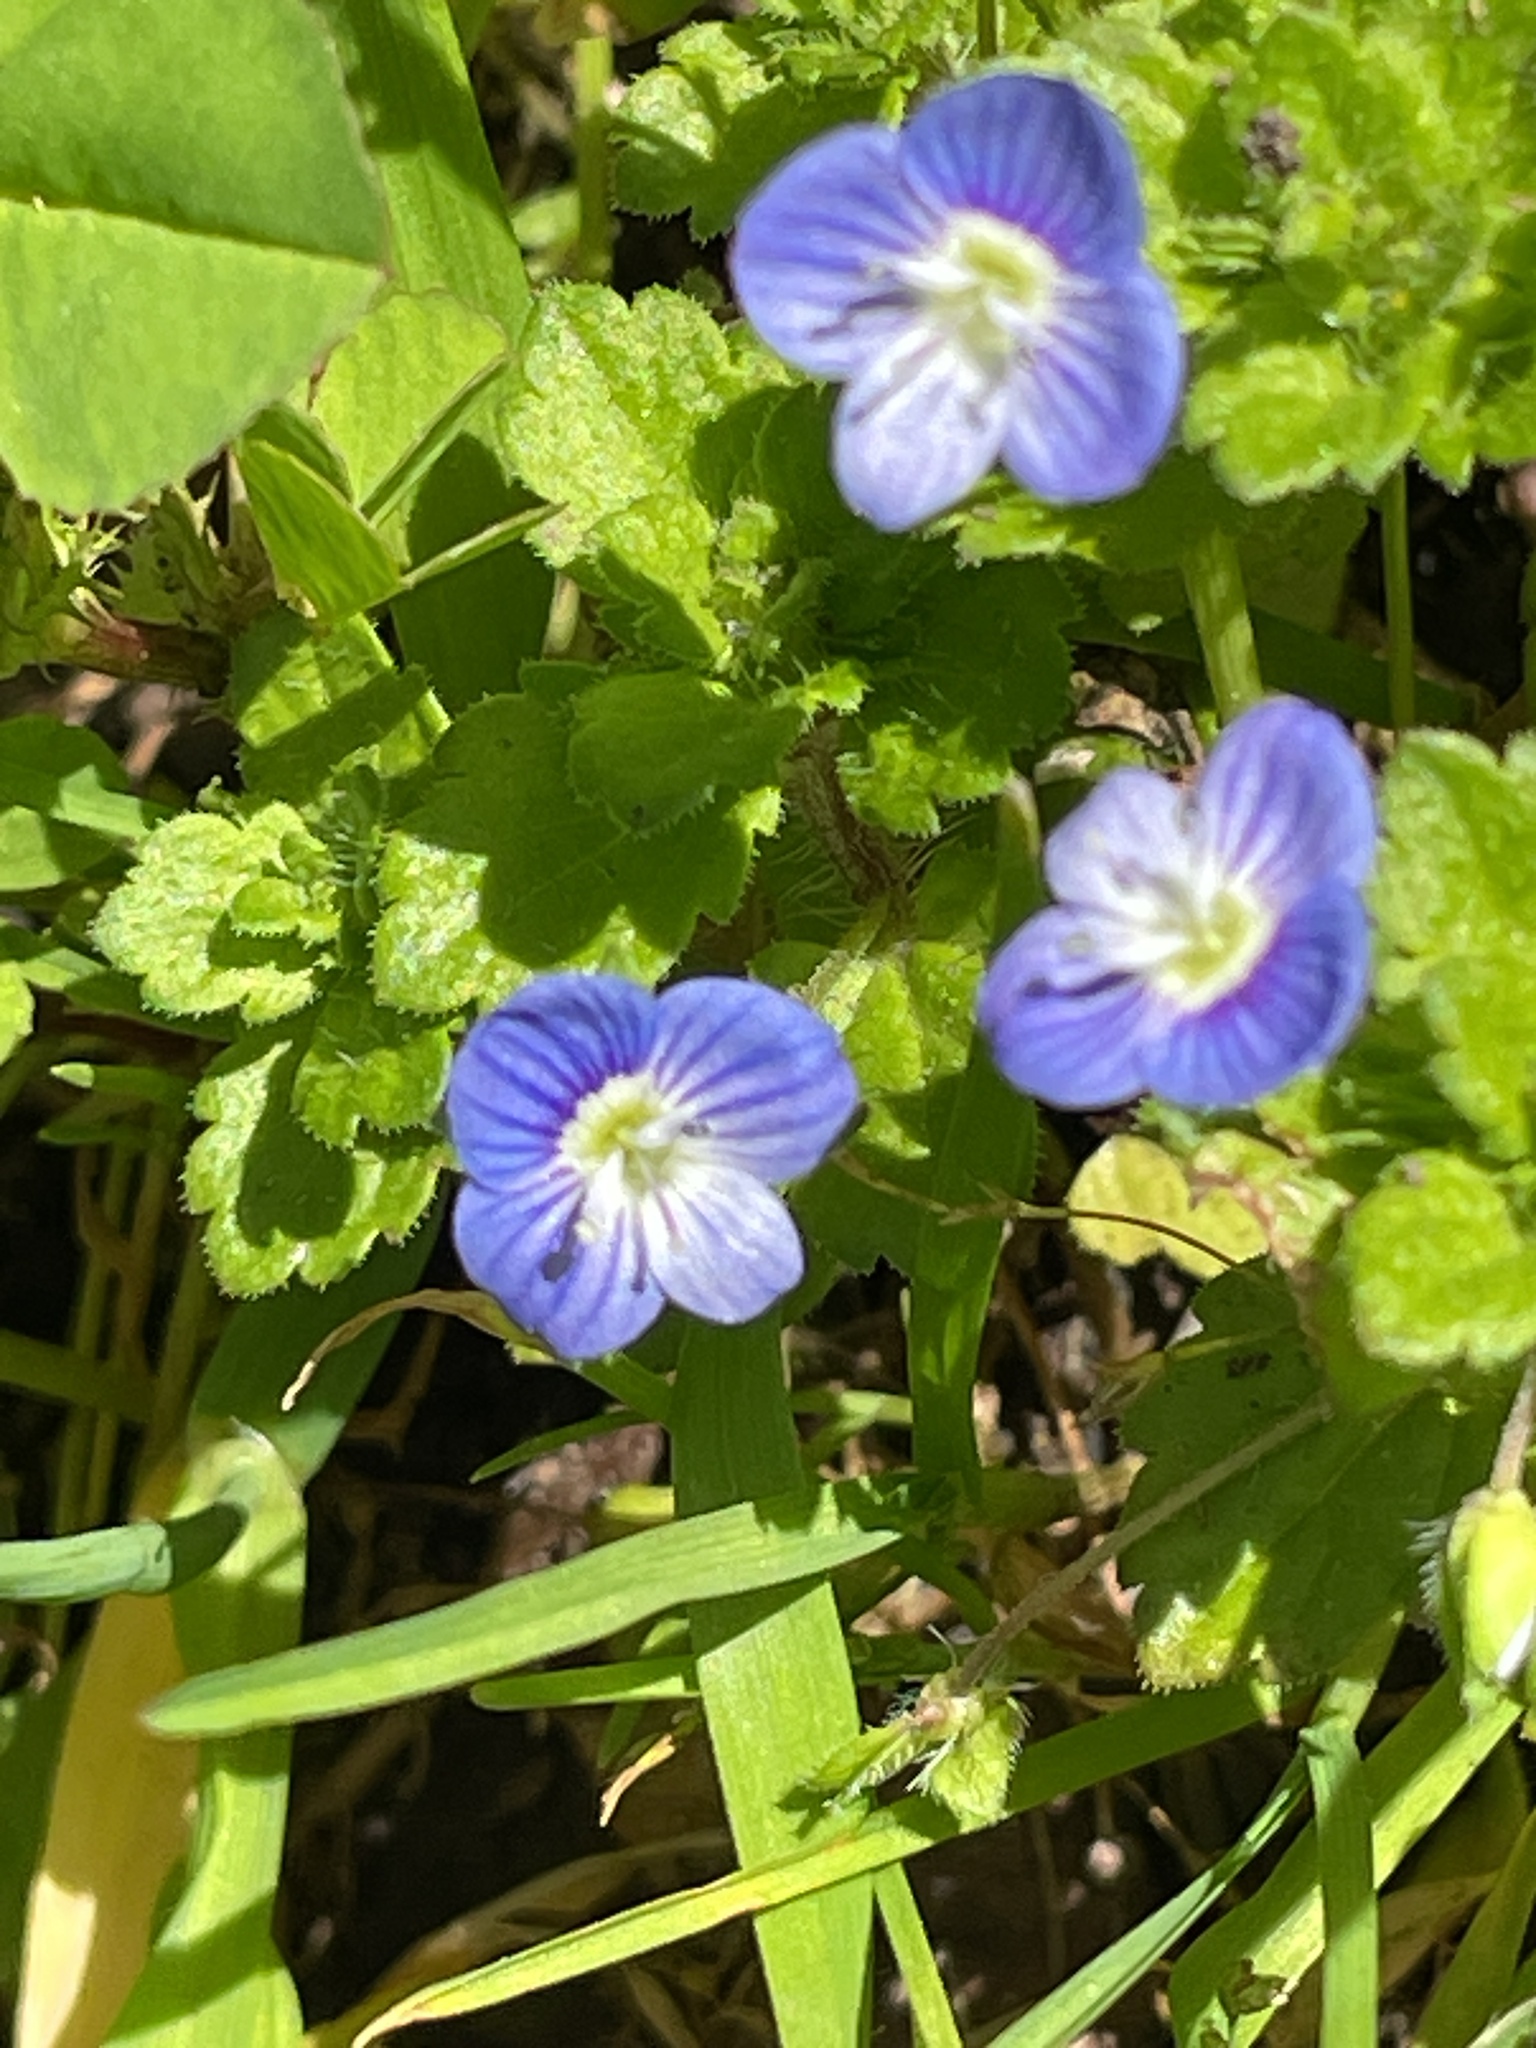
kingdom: Plantae
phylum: Tracheophyta
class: Magnoliopsida
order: Lamiales
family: Plantaginaceae
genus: Veronica
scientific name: Veronica persica
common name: Common field-speedwell
